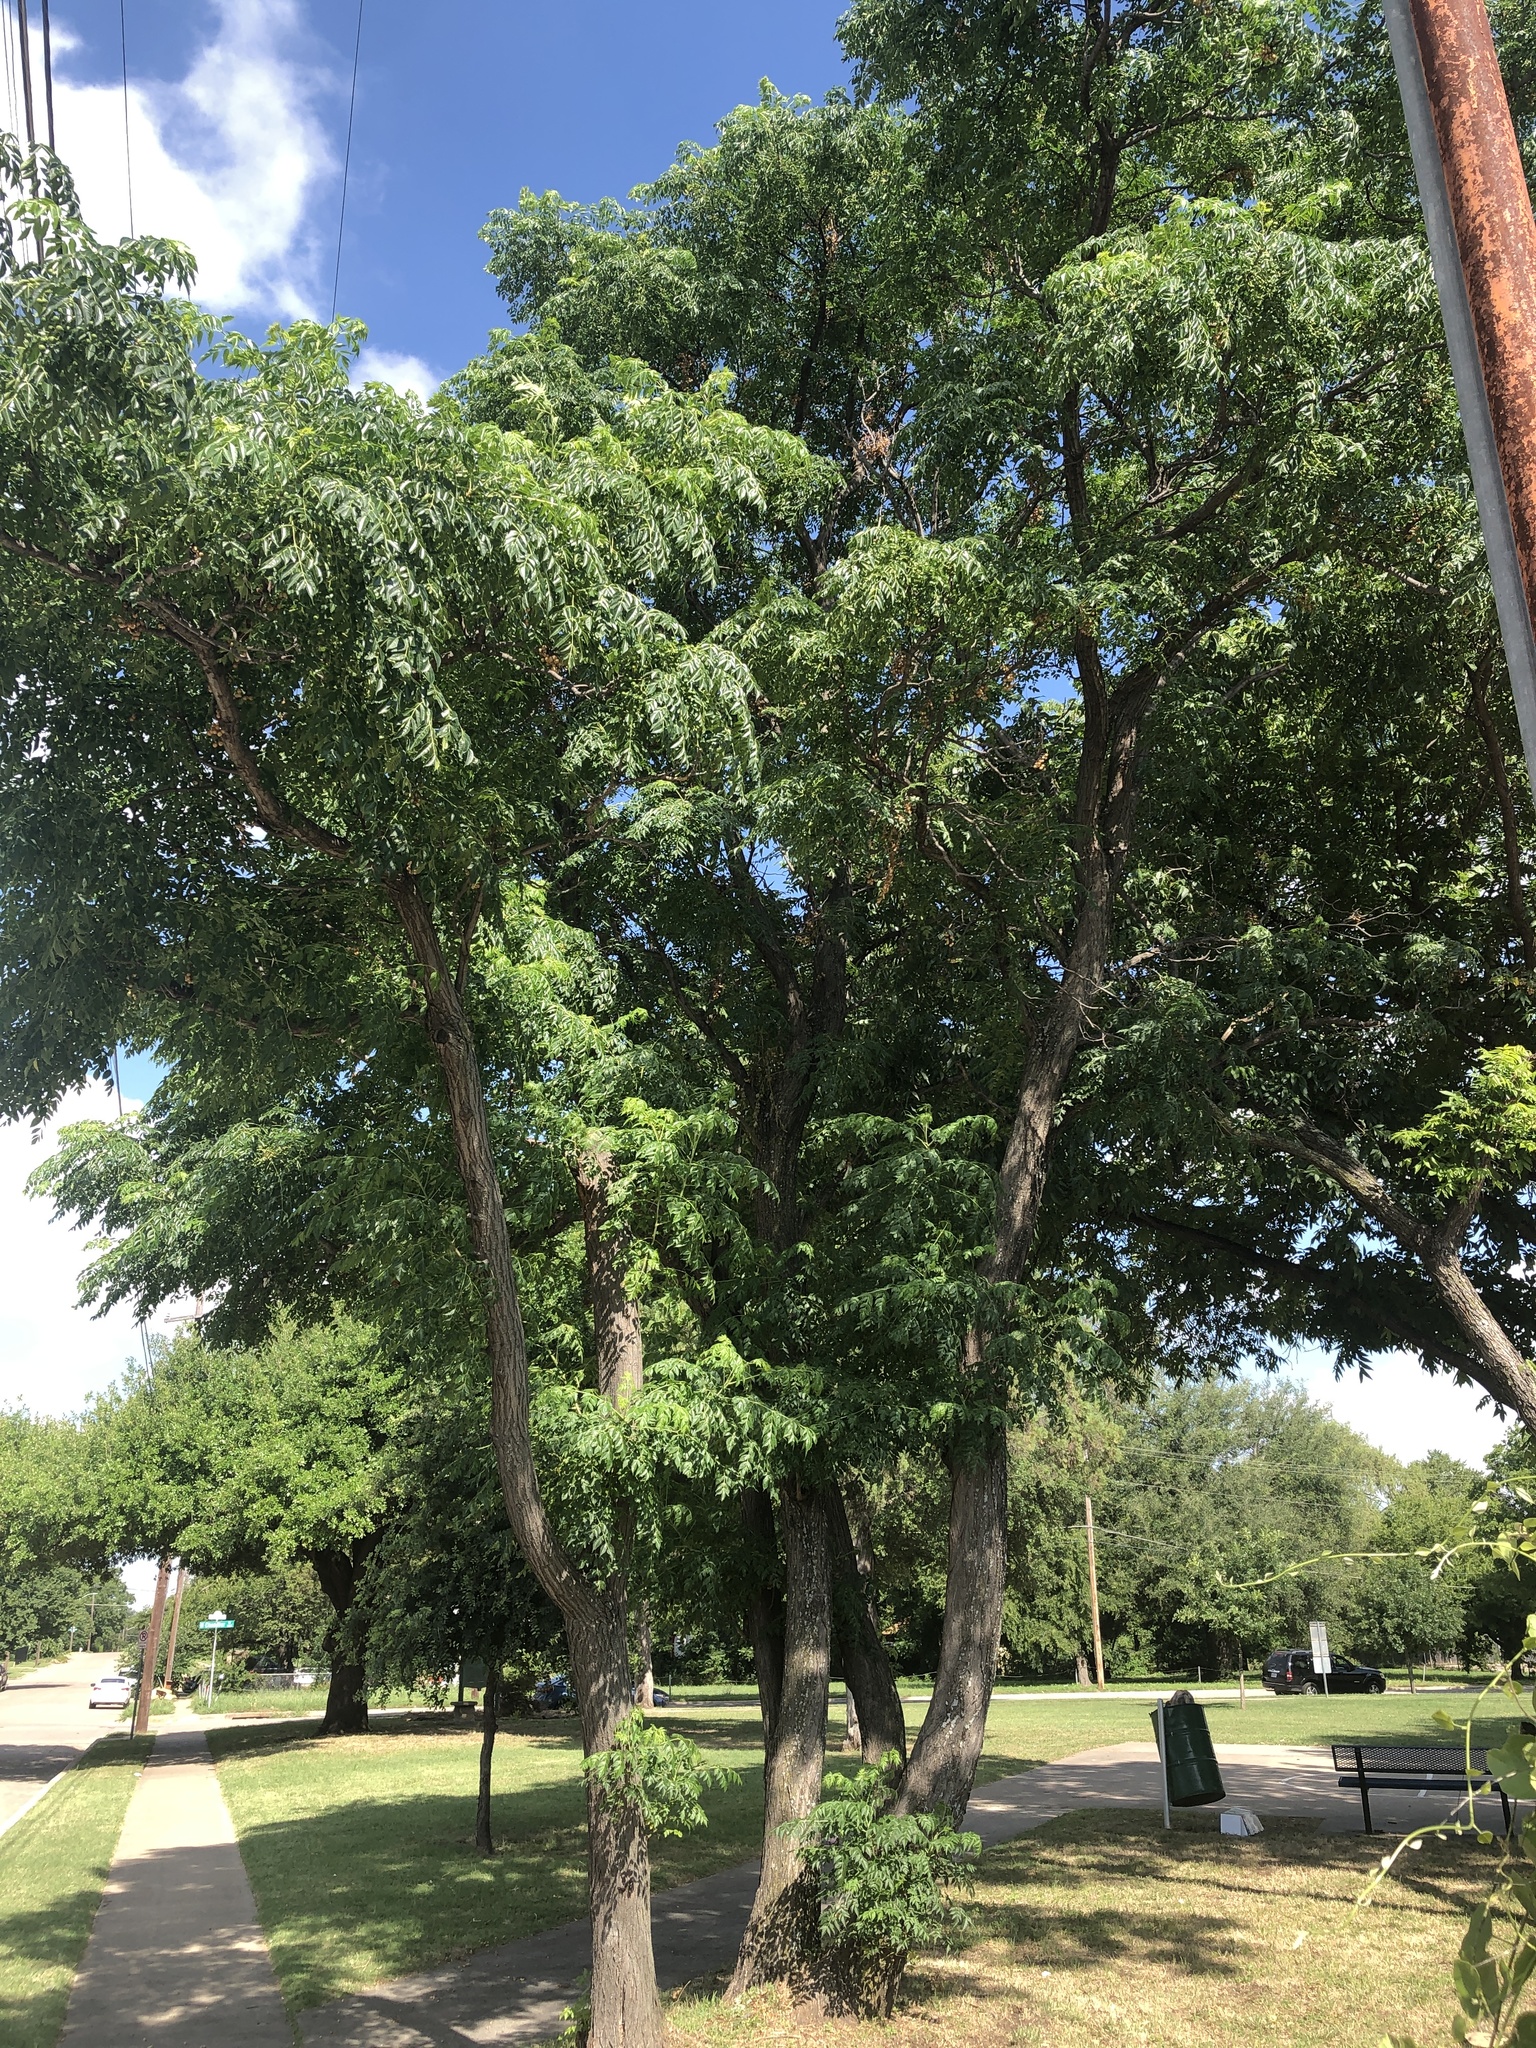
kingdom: Plantae
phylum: Tracheophyta
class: Magnoliopsida
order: Sapindales
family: Meliaceae
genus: Melia
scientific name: Melia azedarach
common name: Chinaberrytree
